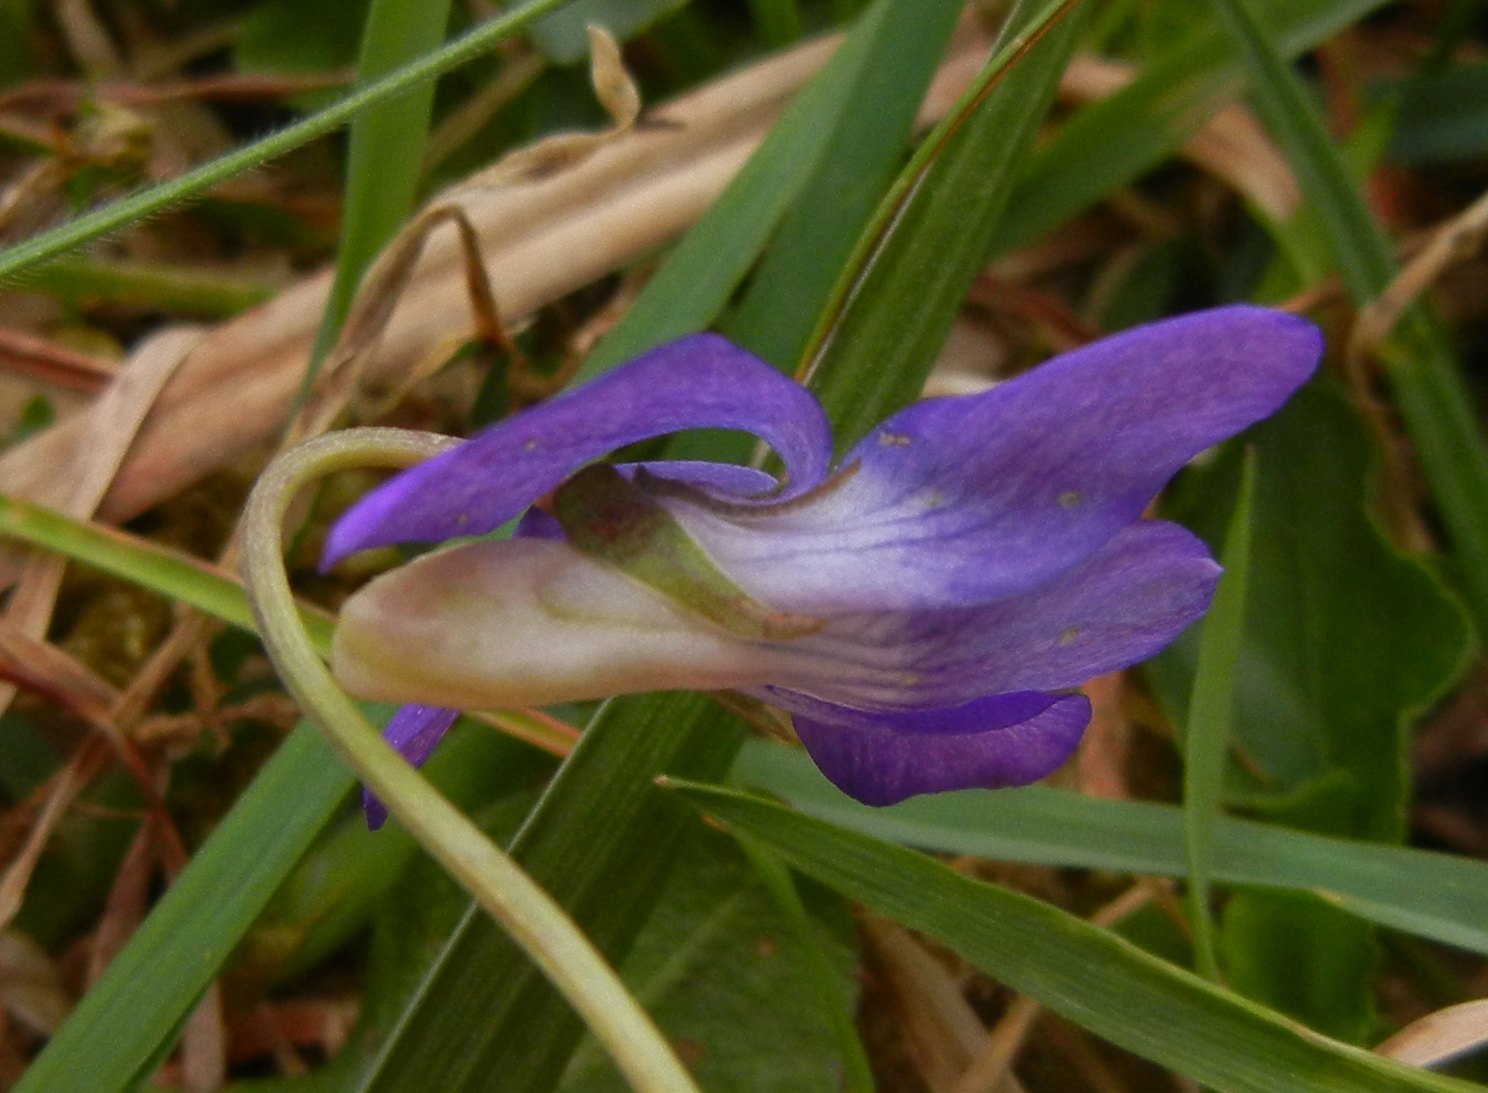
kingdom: Plantae
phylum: Tracheophyta
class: Magnoliopsida
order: Malpighiales
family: Violaceae
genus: Viola
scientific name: Viola riviniana
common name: Common dog-violet
